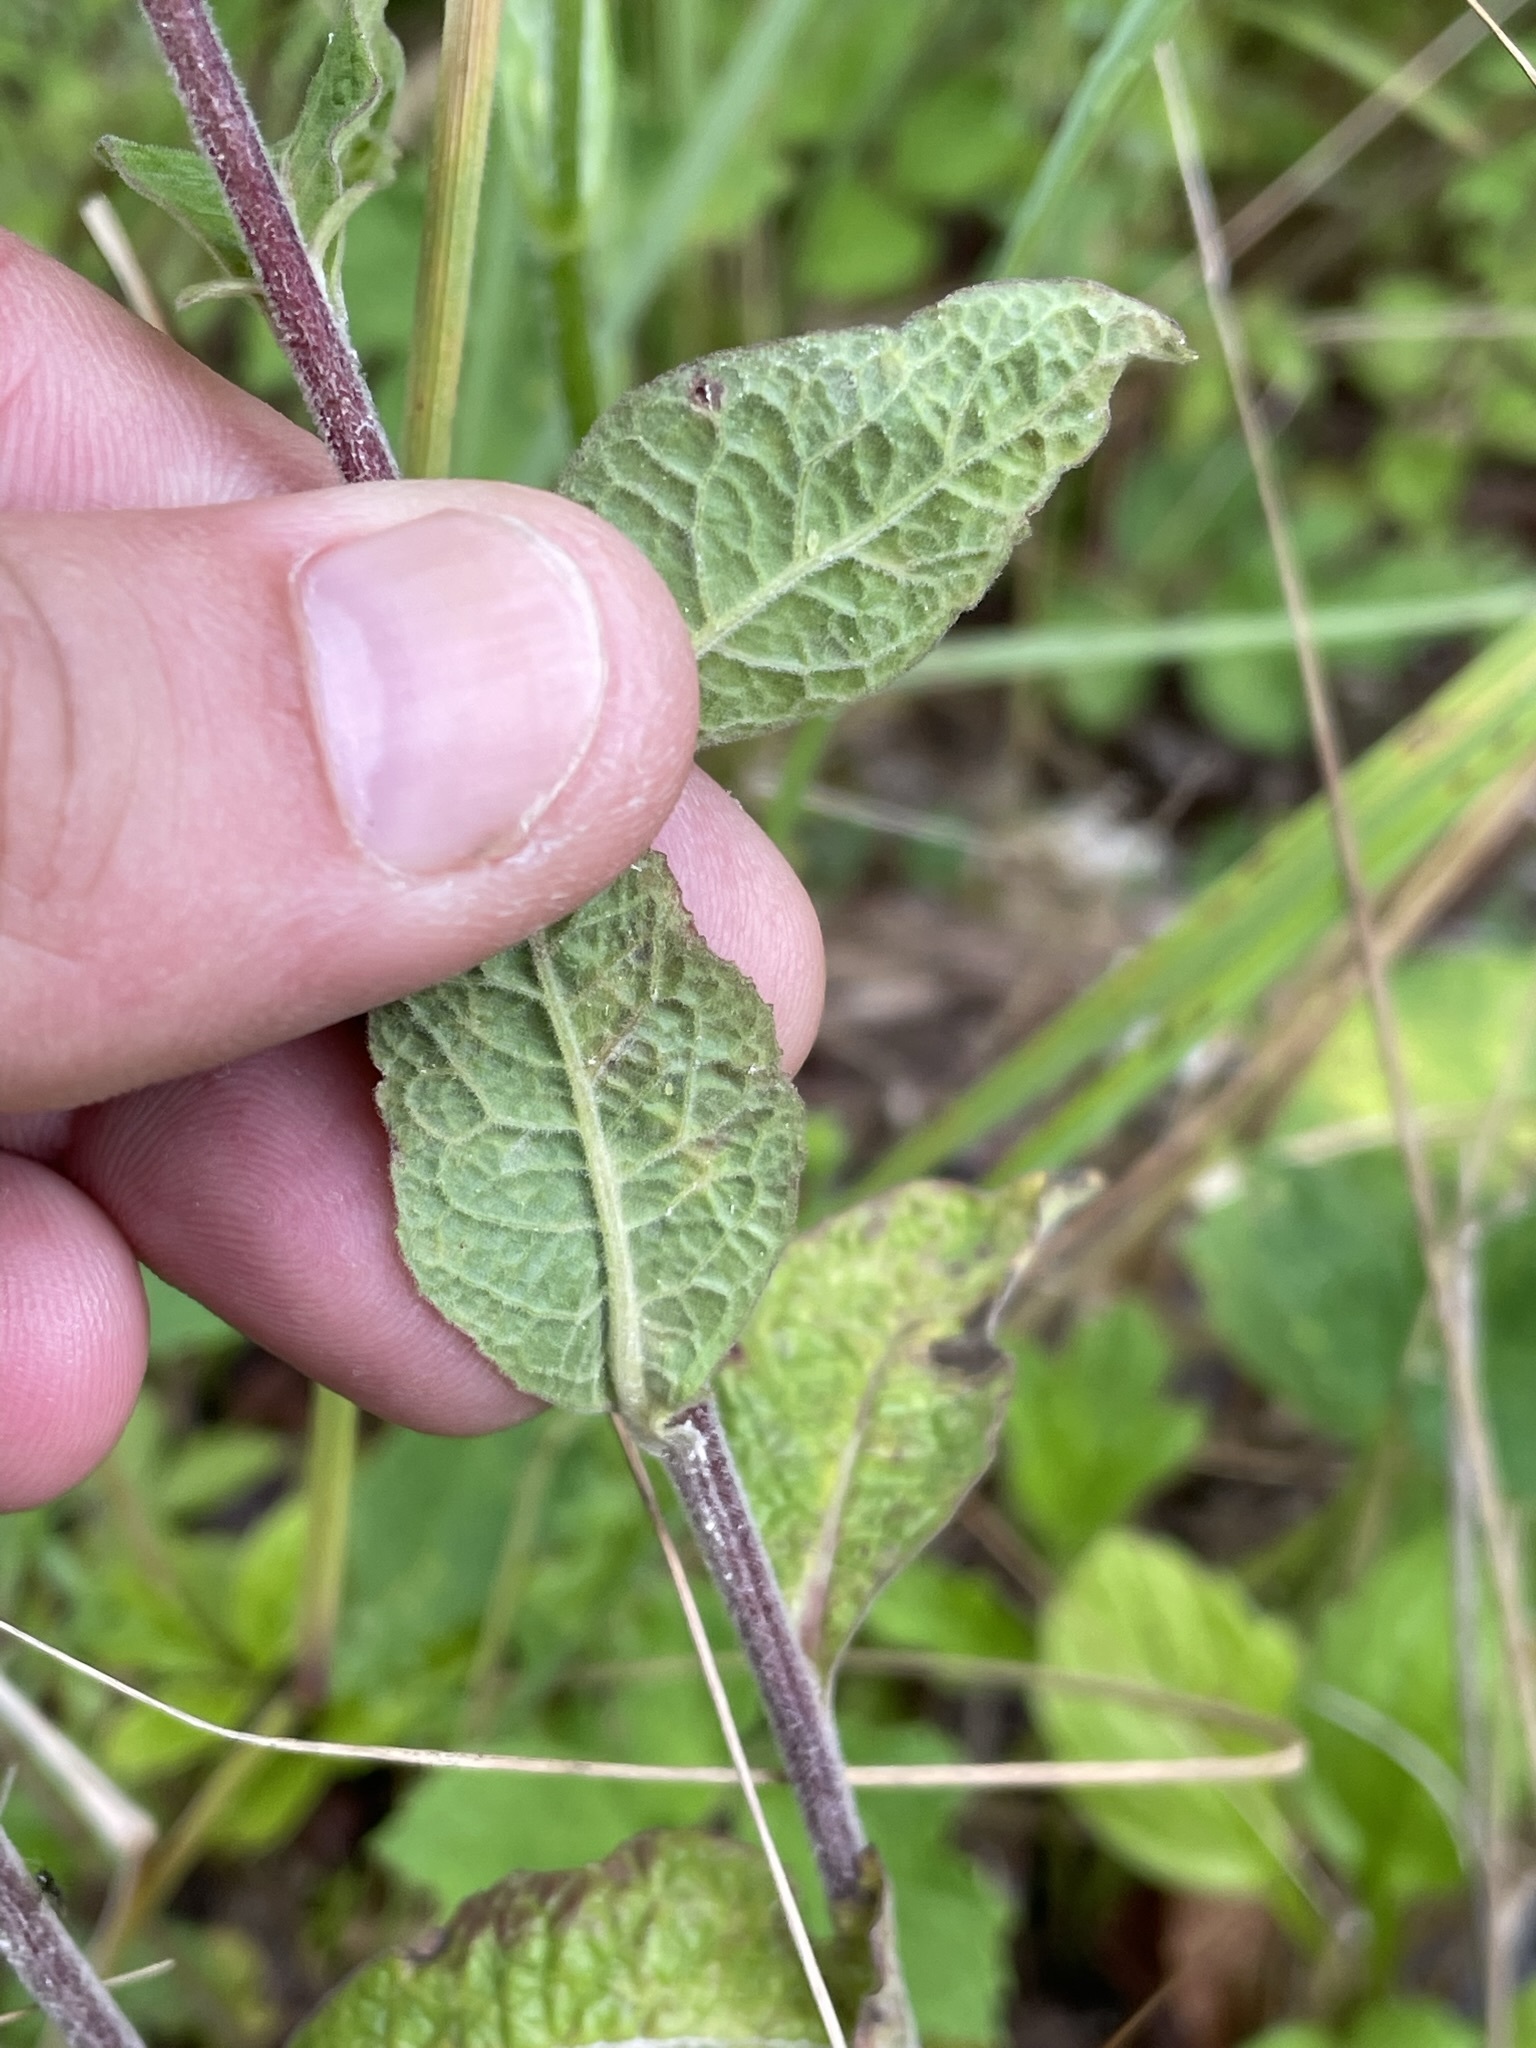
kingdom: Plantae
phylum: Tracheophyta
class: Magnoliopsida
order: Asterales
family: Asteraceae
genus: Pentanema
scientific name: Pentanema squarrosum
